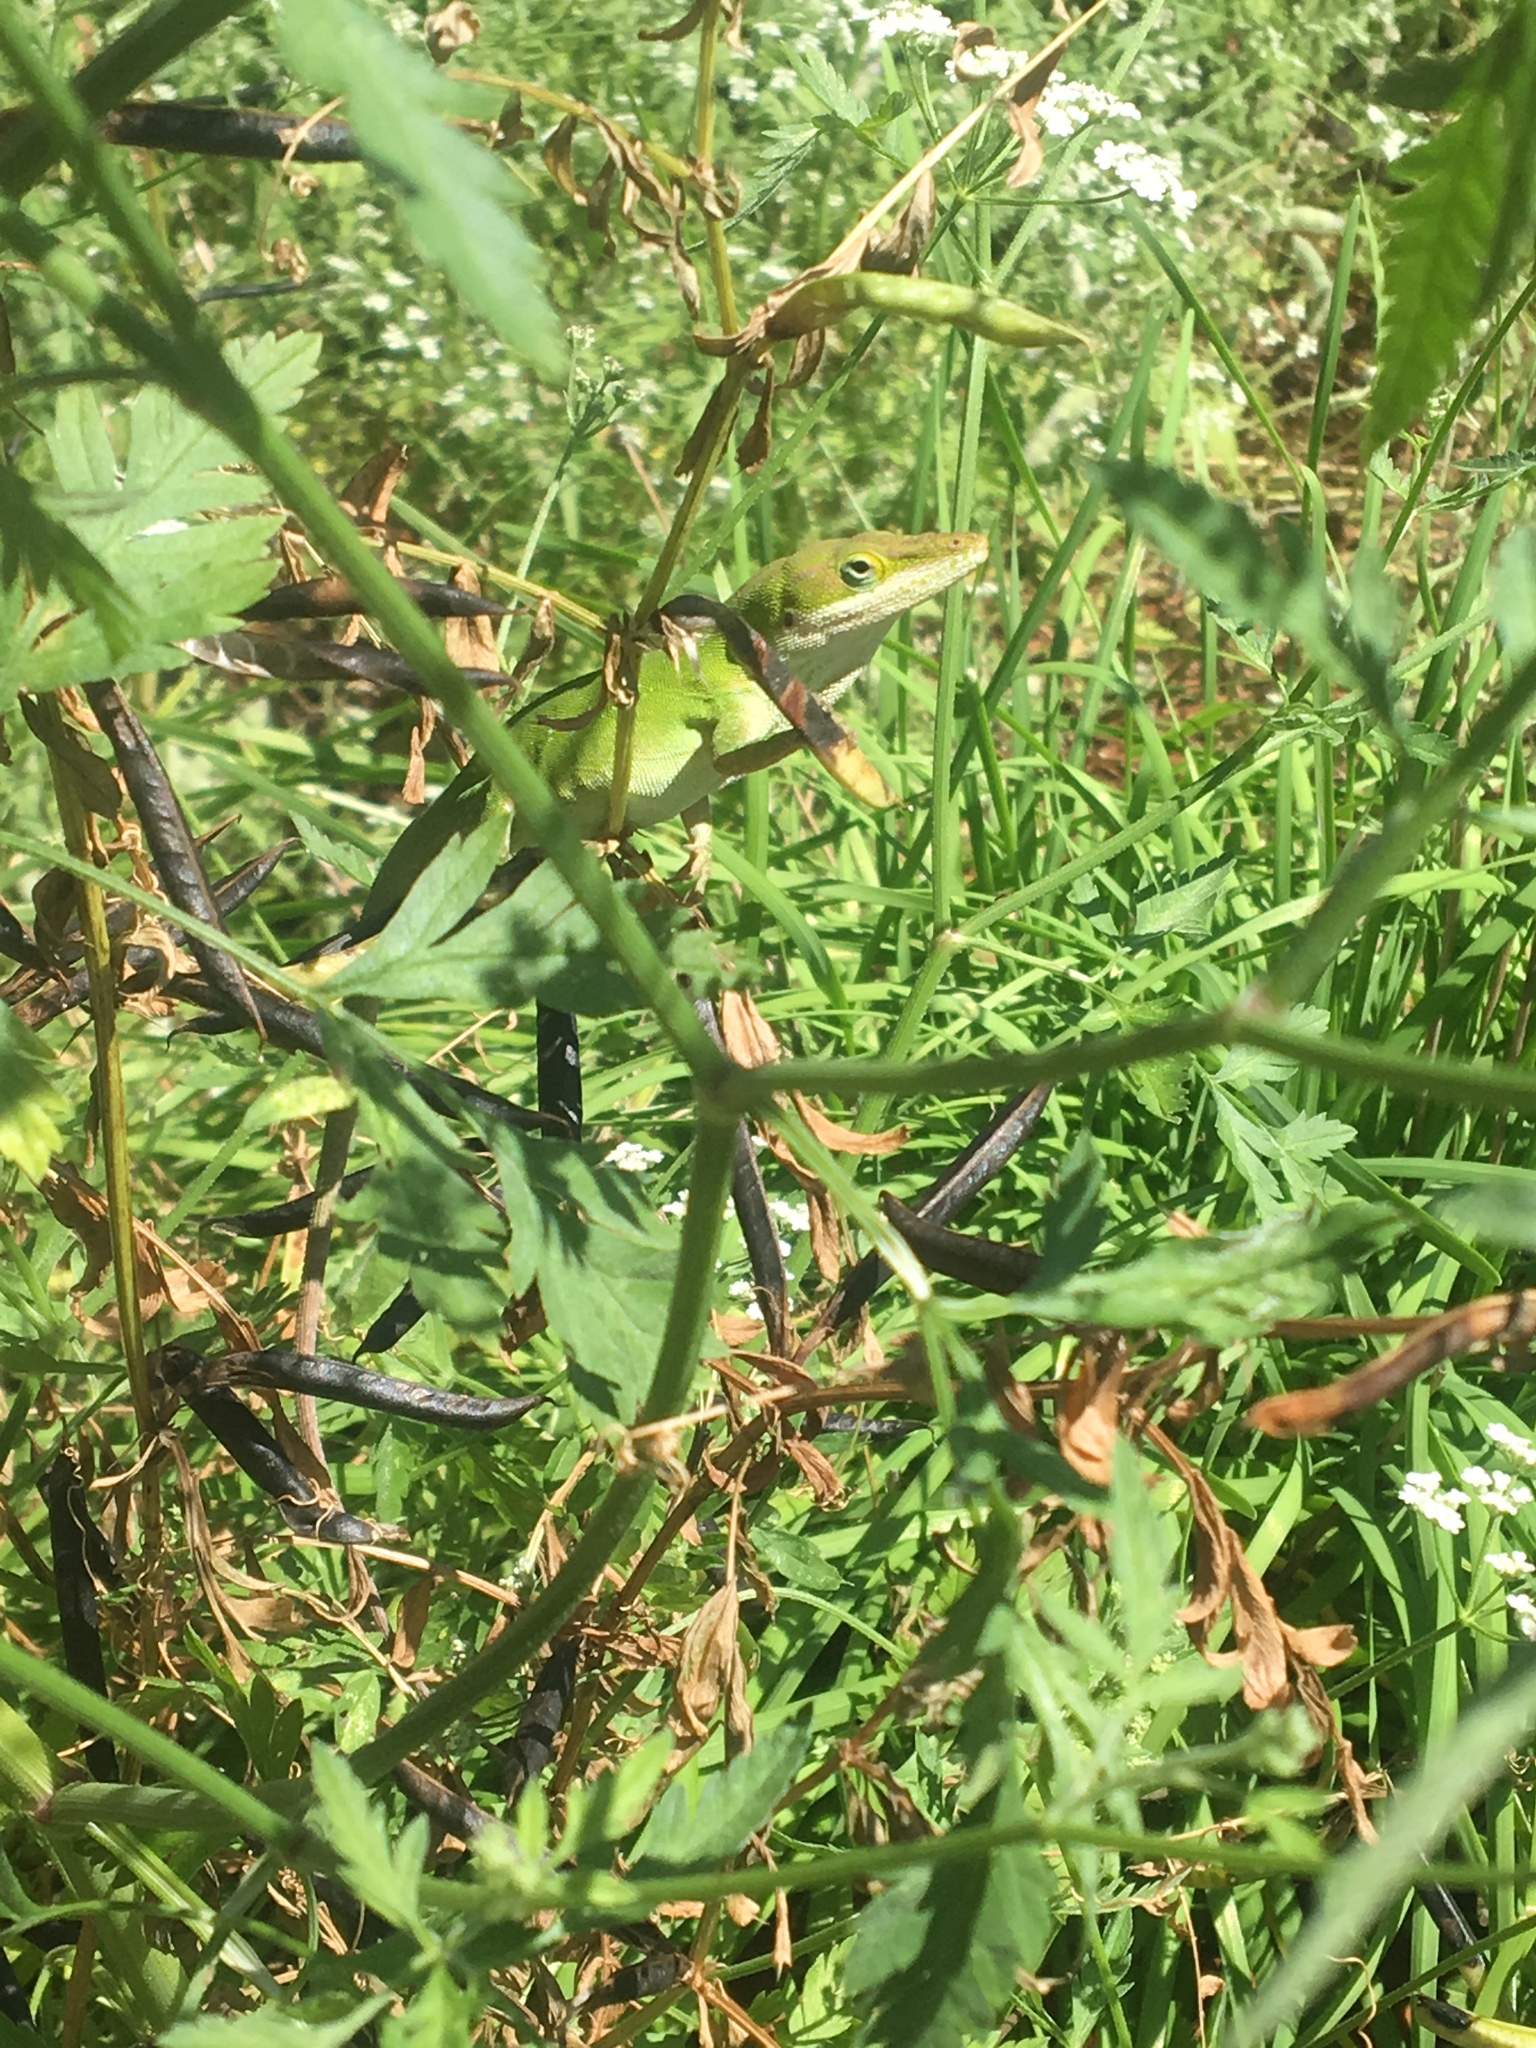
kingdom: Animalia
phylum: Chordata
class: Squamata
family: Dactyloidae
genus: Anolis
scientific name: Anolis carolinensis
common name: Green anole
